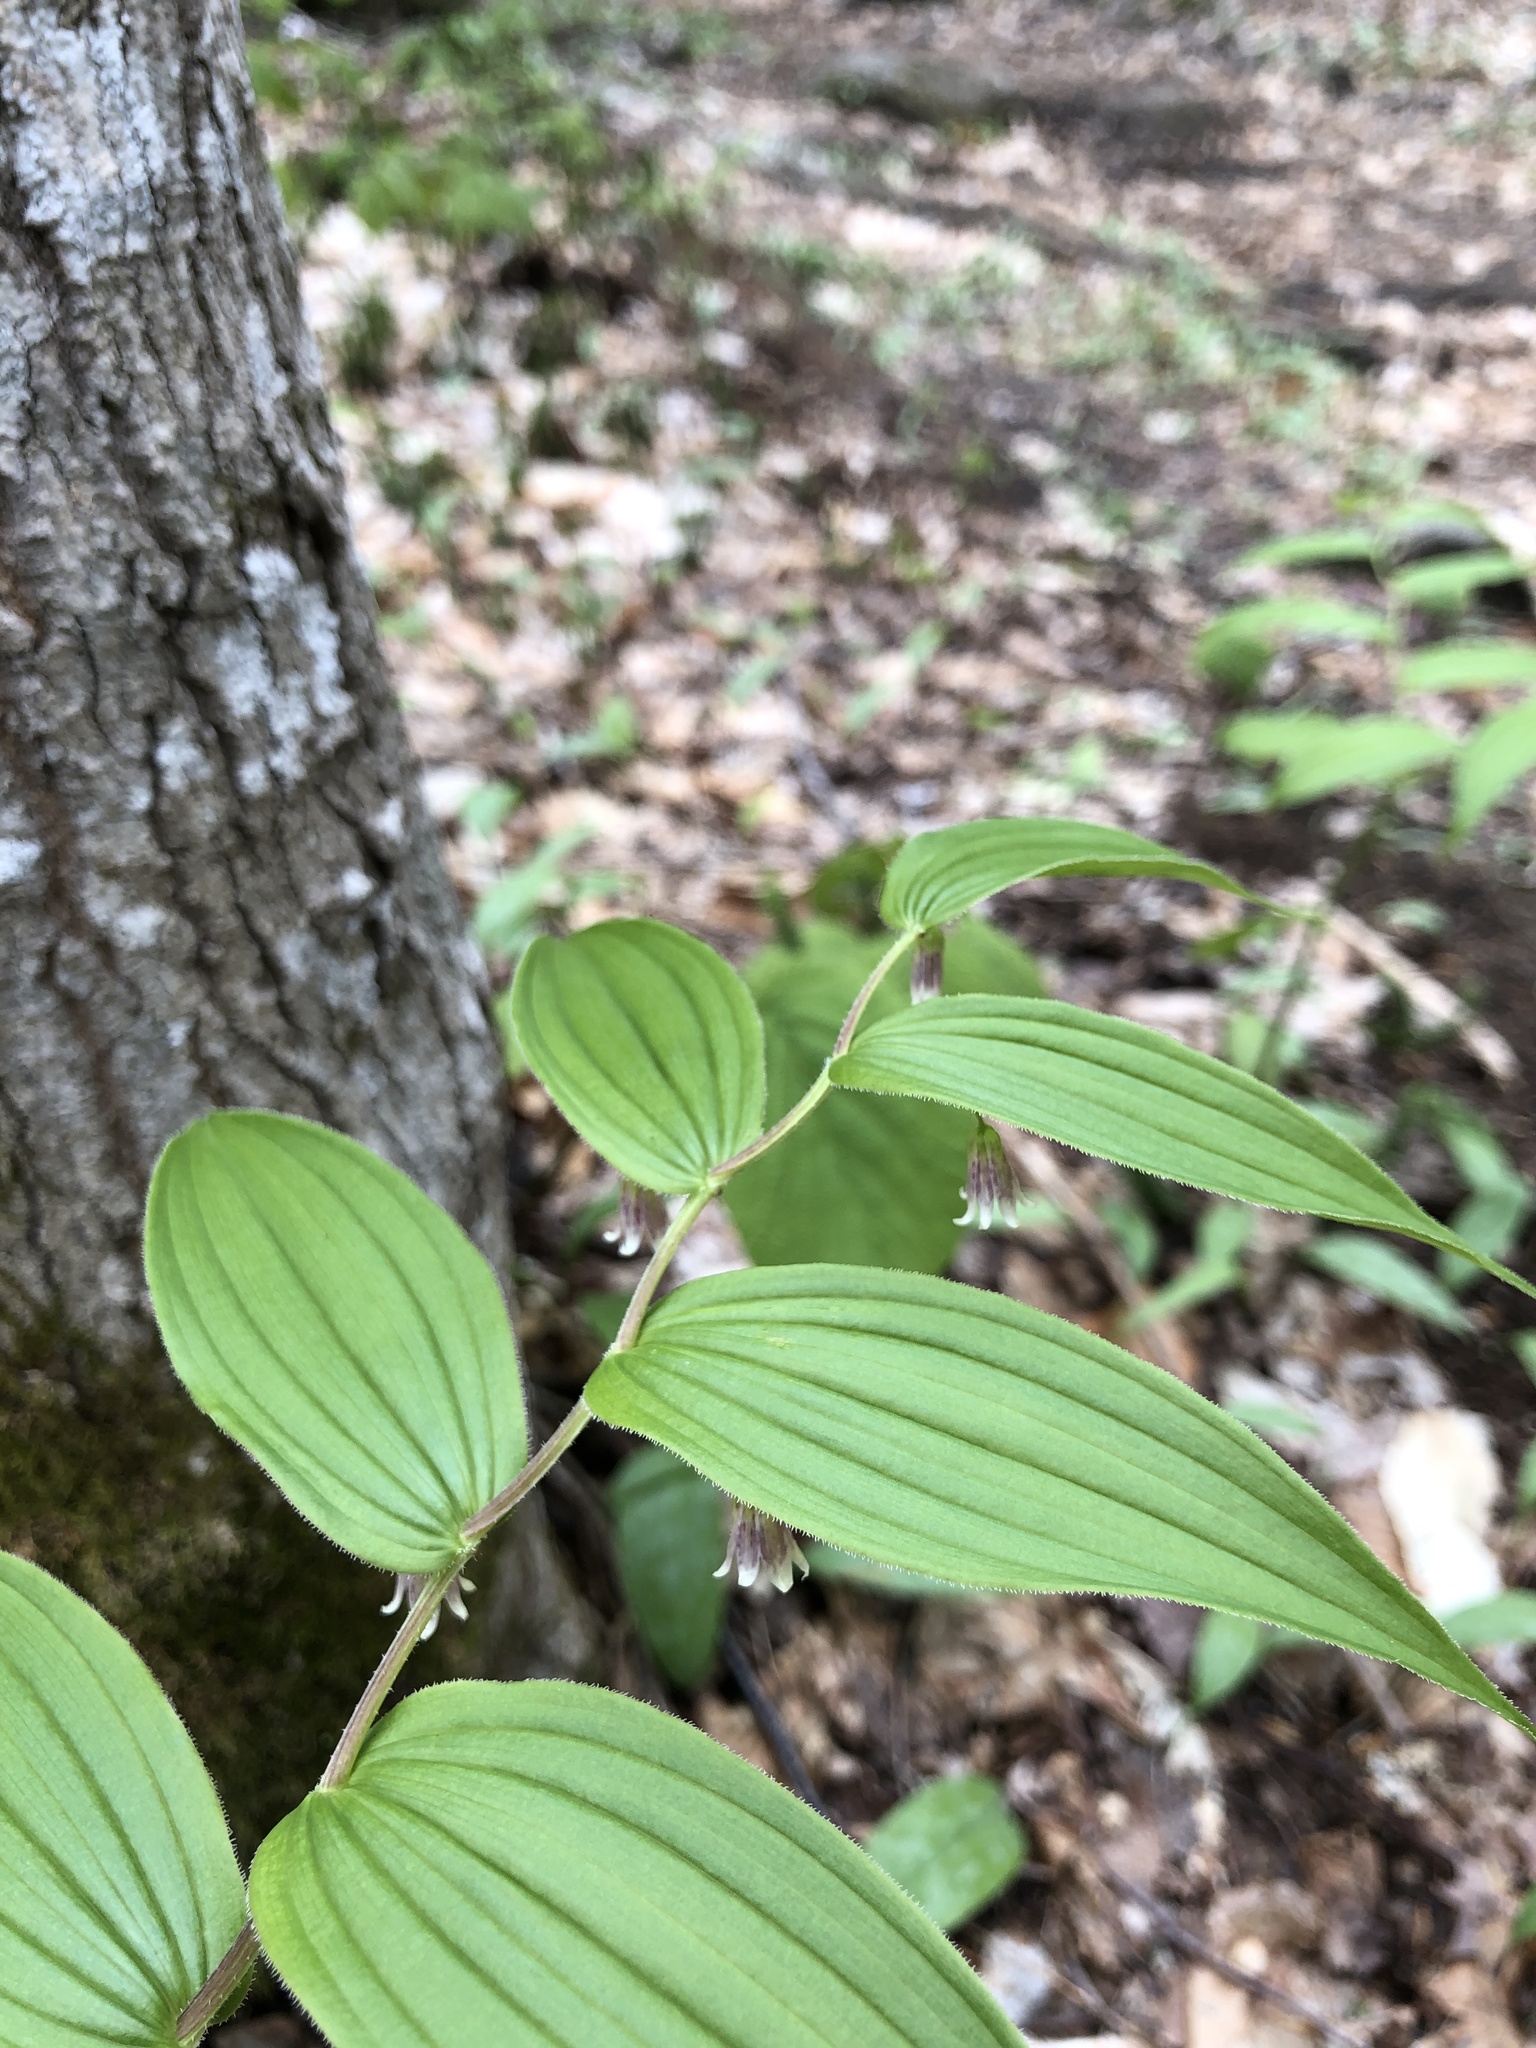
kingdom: Plantae
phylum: Tracheophyta
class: Liliopsida
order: Liliales
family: Liliaceae
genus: Streptopus
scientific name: Streptopus lanceolatus
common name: Rose mandarin
